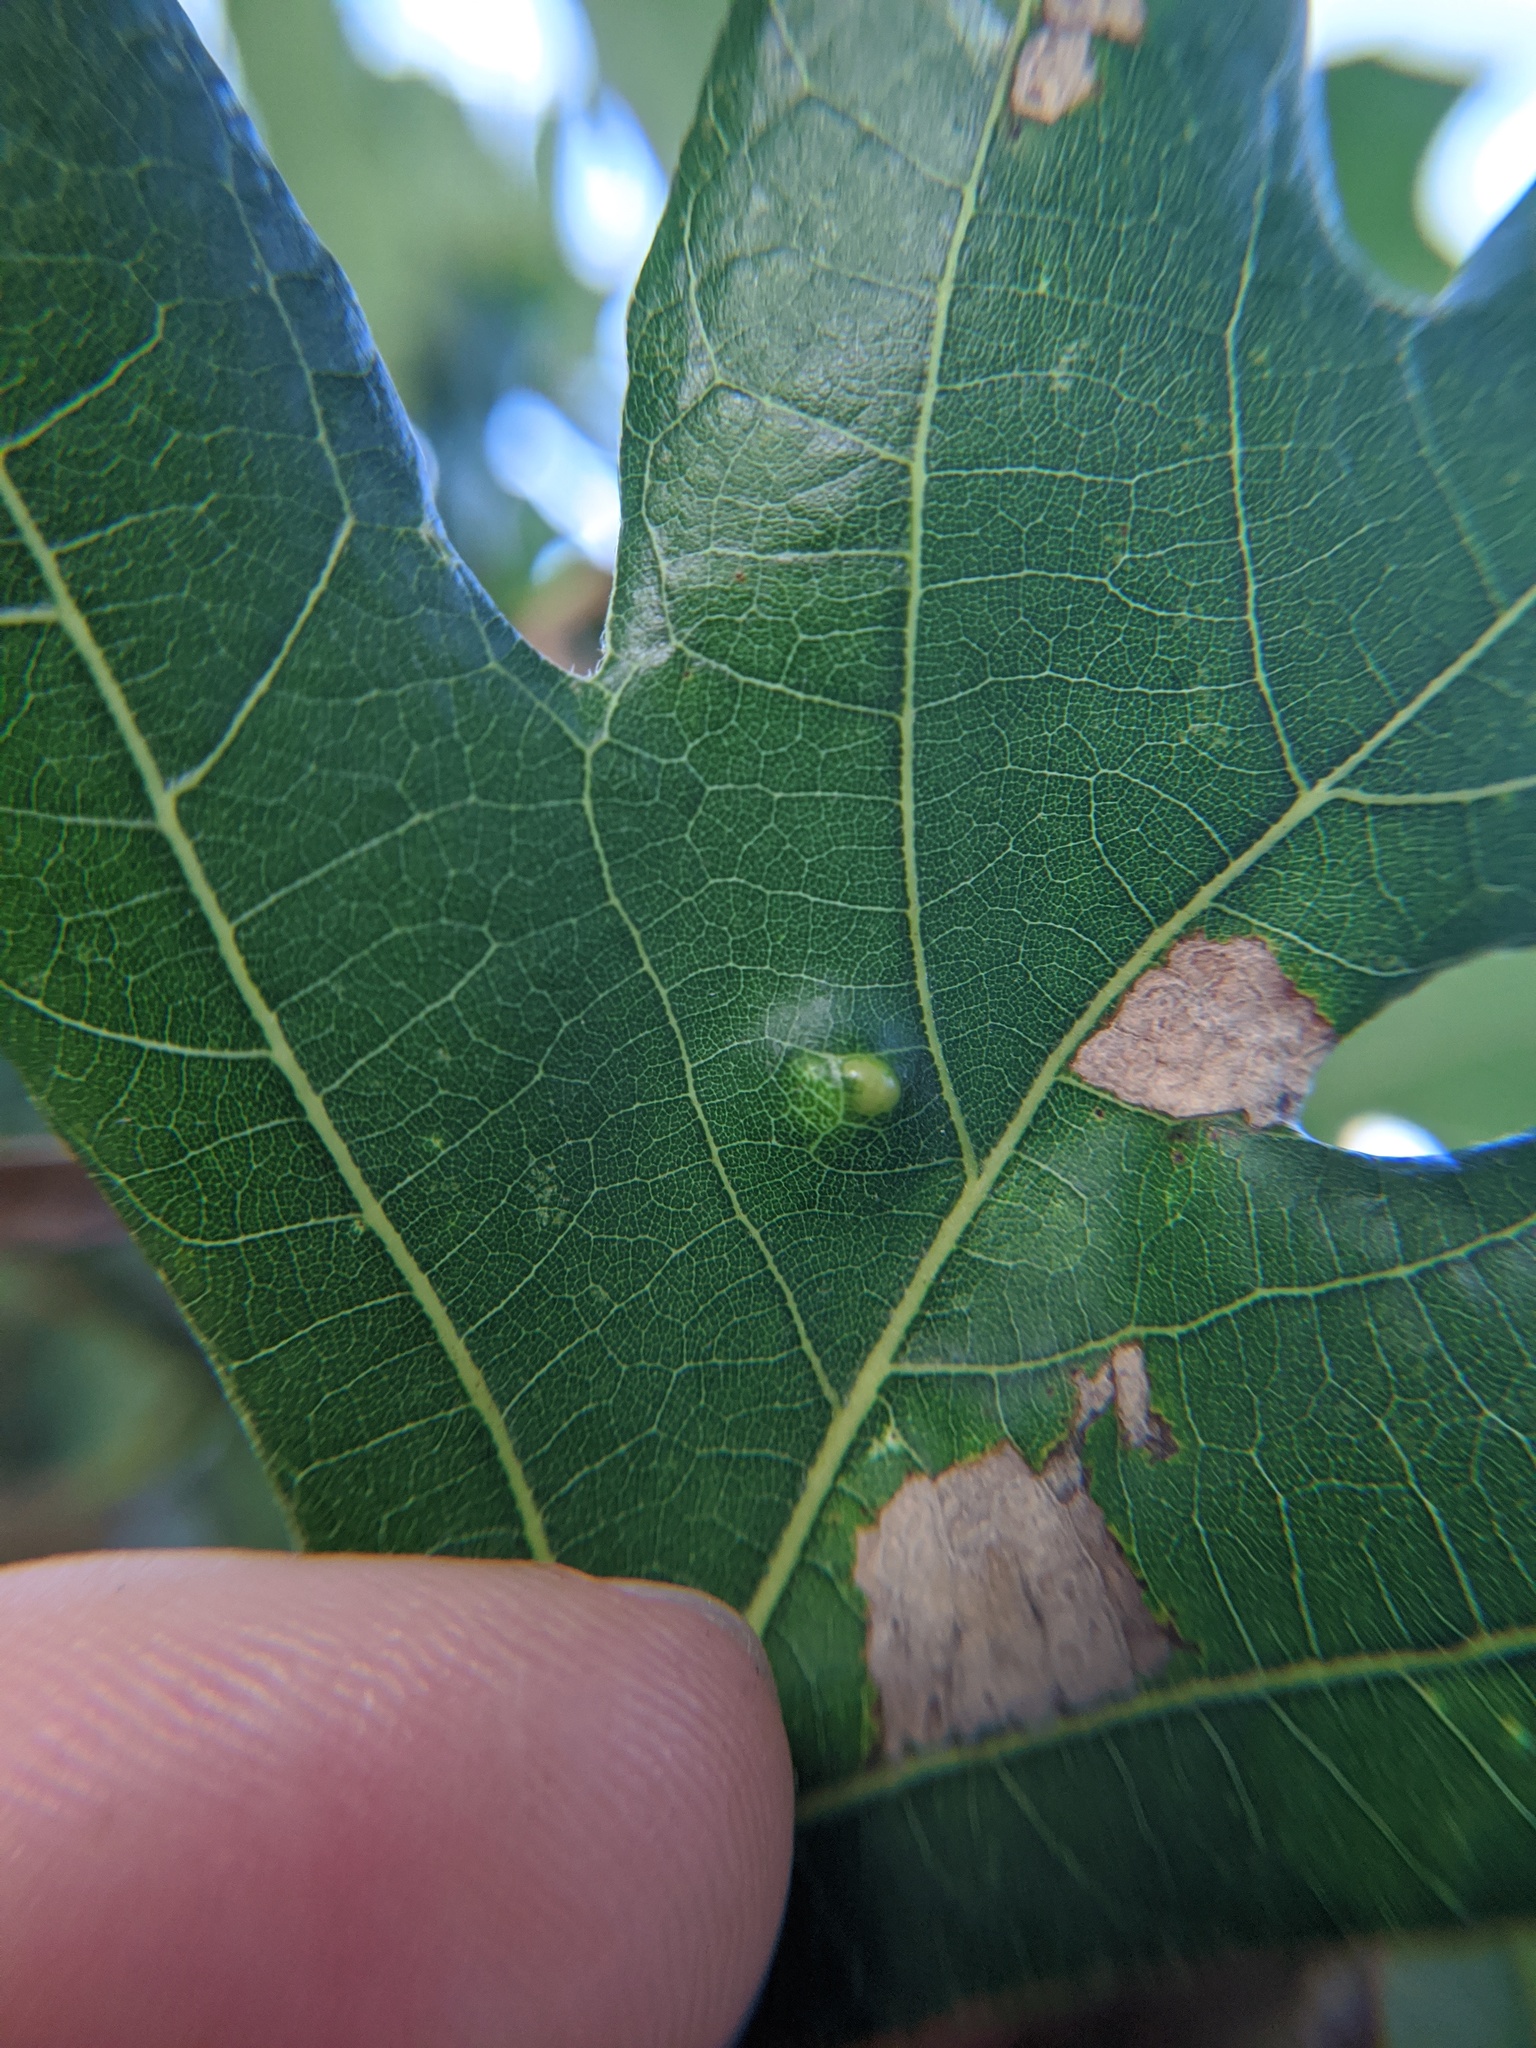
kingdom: Animalia
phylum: Arthropoda
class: Arachnida
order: Trombidiformes
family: Eriophyidae
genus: Aceria
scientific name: Aceria quercina
